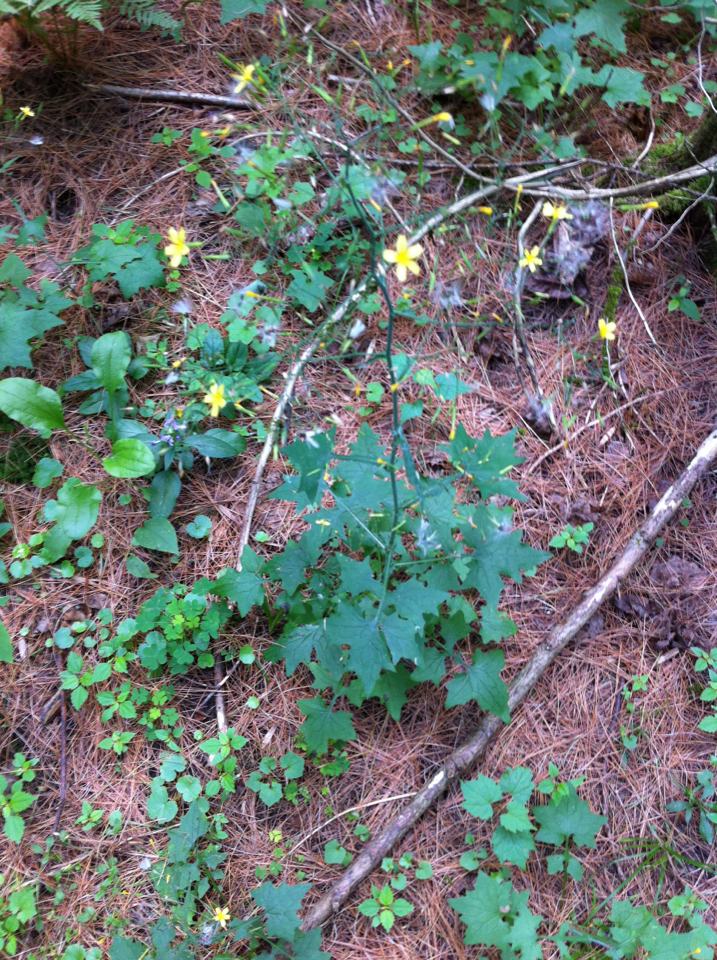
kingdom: Plantae
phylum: Tracheophyta
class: Magnoliopsida
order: Asterales
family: Asteraceae
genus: Mycelis
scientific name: Mycelis muralis
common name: Wall lettuce
